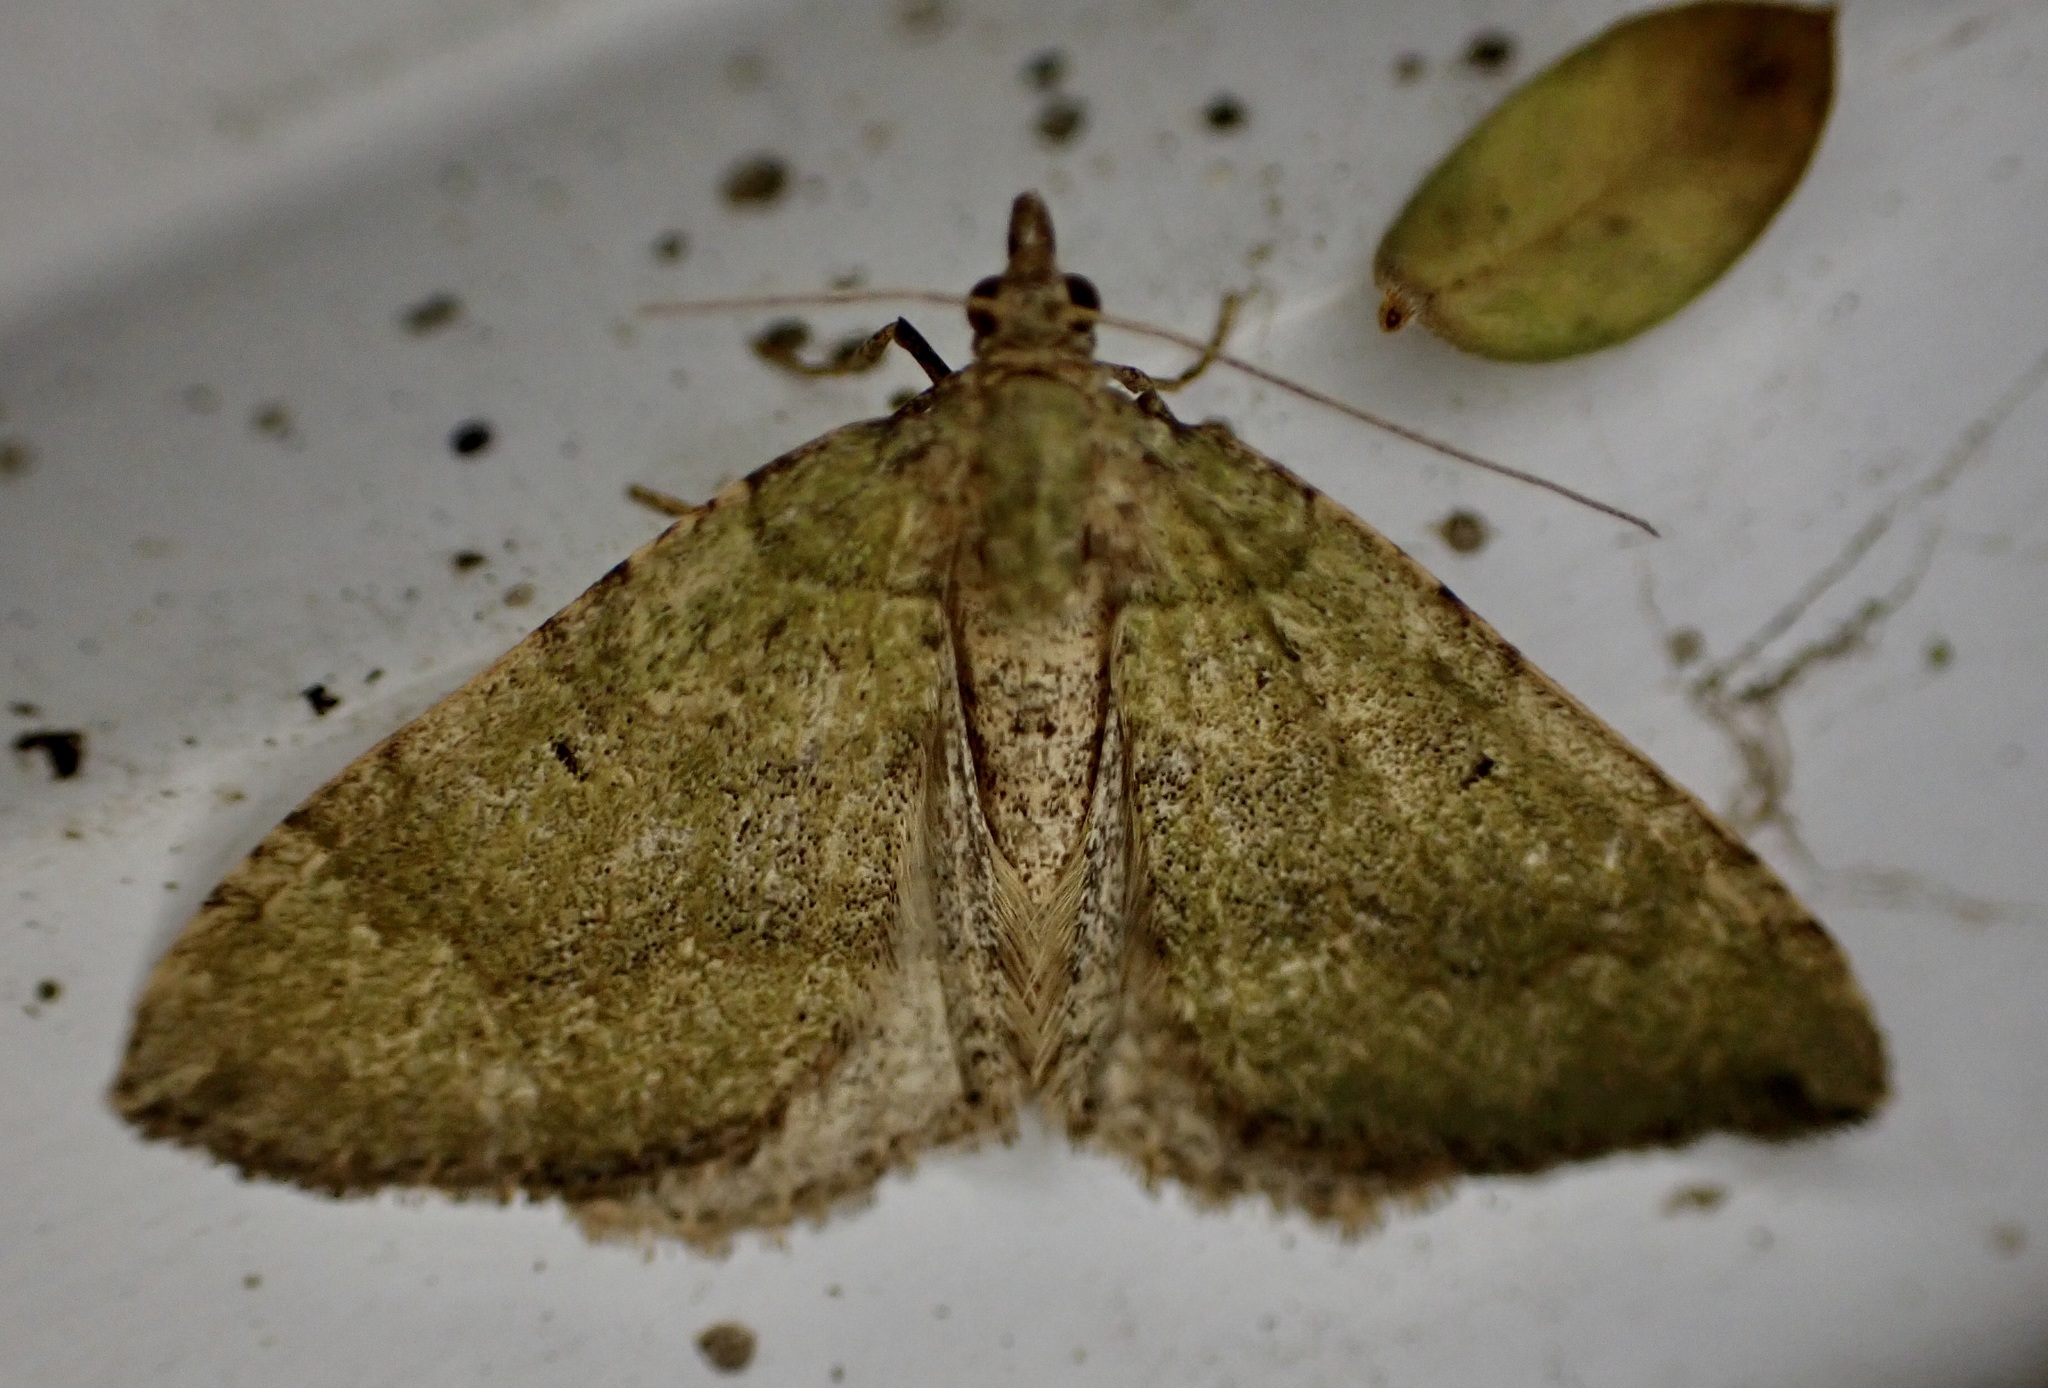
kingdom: Animalia
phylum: Arthropoda
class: Insecta
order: Lepidoptera
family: Geometridae
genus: Epyaxa
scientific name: Epyaxa rosearia
